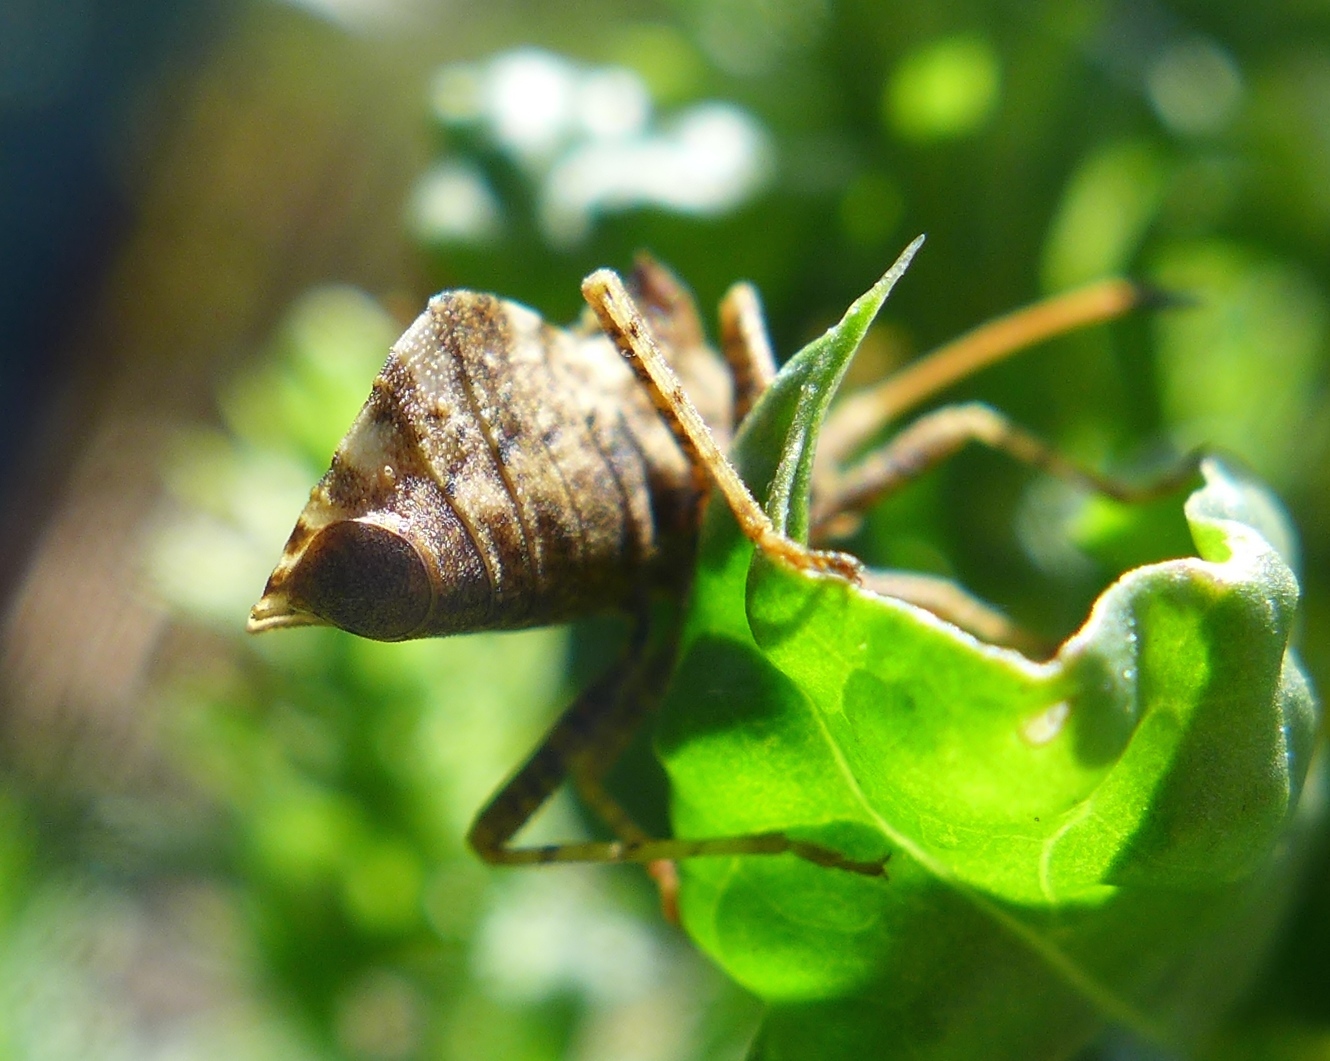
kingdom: Animalia
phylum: Arthropoda
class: Insecta
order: Hemiptera
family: Coreidae
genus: Centrocoris
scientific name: Centrocoris variegatus
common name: Leaf-footed bug
